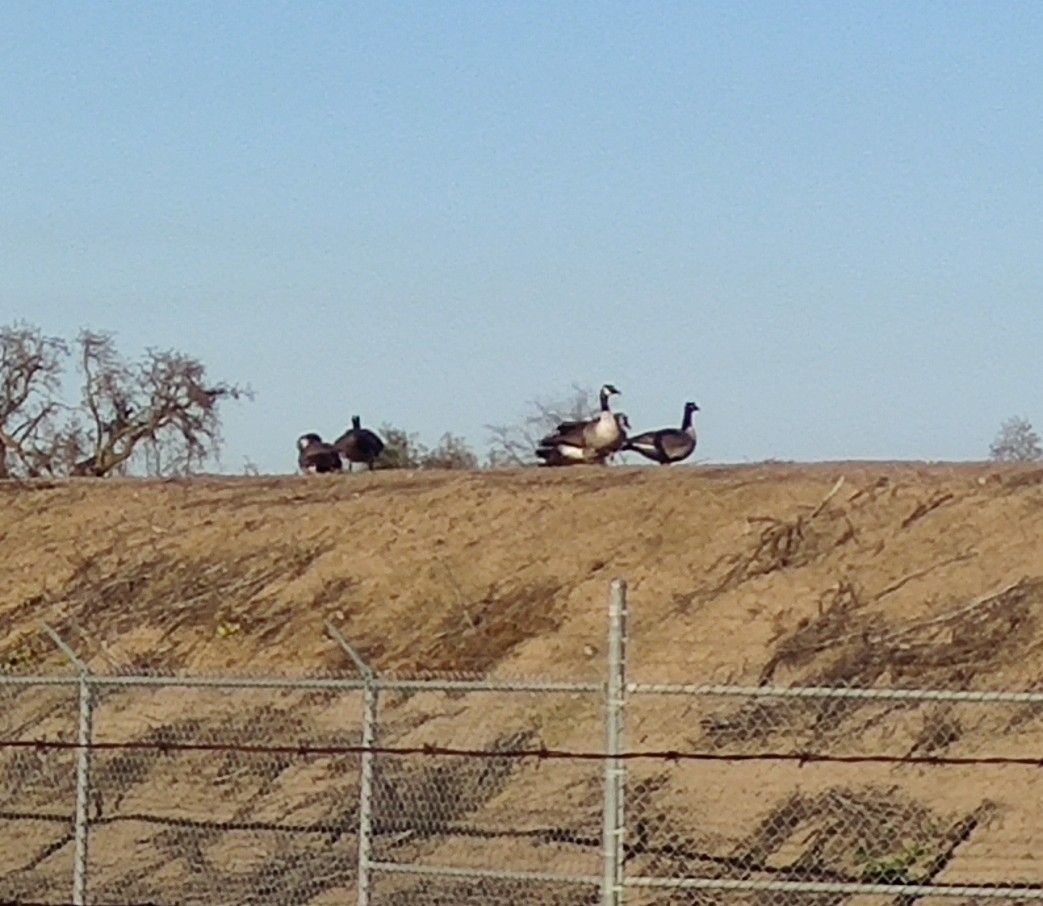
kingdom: Animalia
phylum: Chordata
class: Aves
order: Anseriformes
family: Anatidae
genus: Branta
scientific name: Branta canadensis
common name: Canada goose
